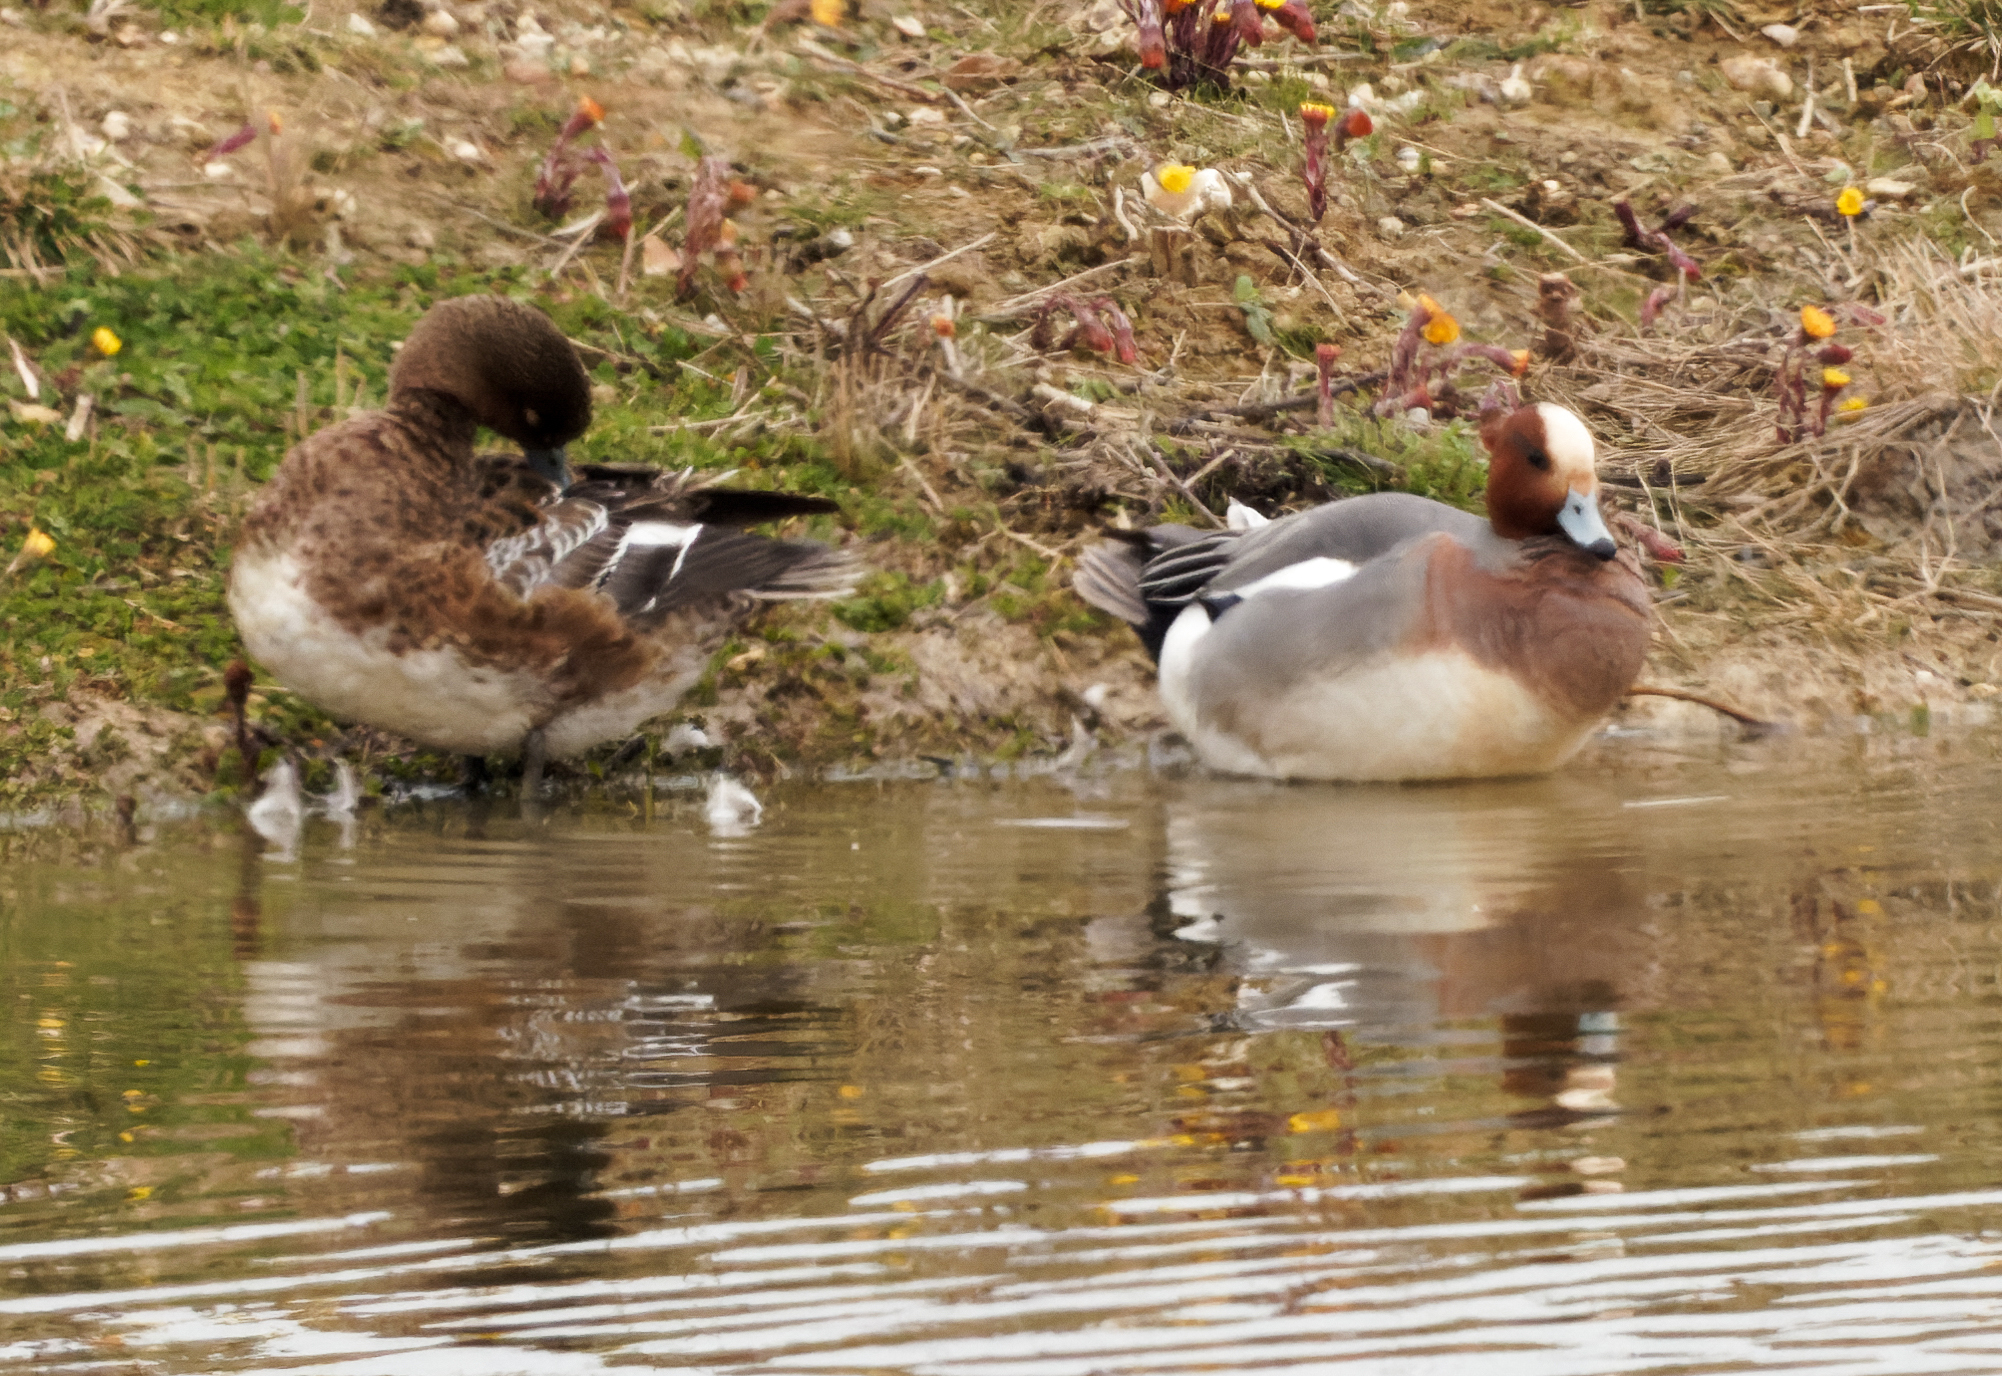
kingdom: Animalia
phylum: Chordata
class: Aves
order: Anseriformes
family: Anatidae
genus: Mareca
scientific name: Mareca penelope
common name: Eurasian wigeon
